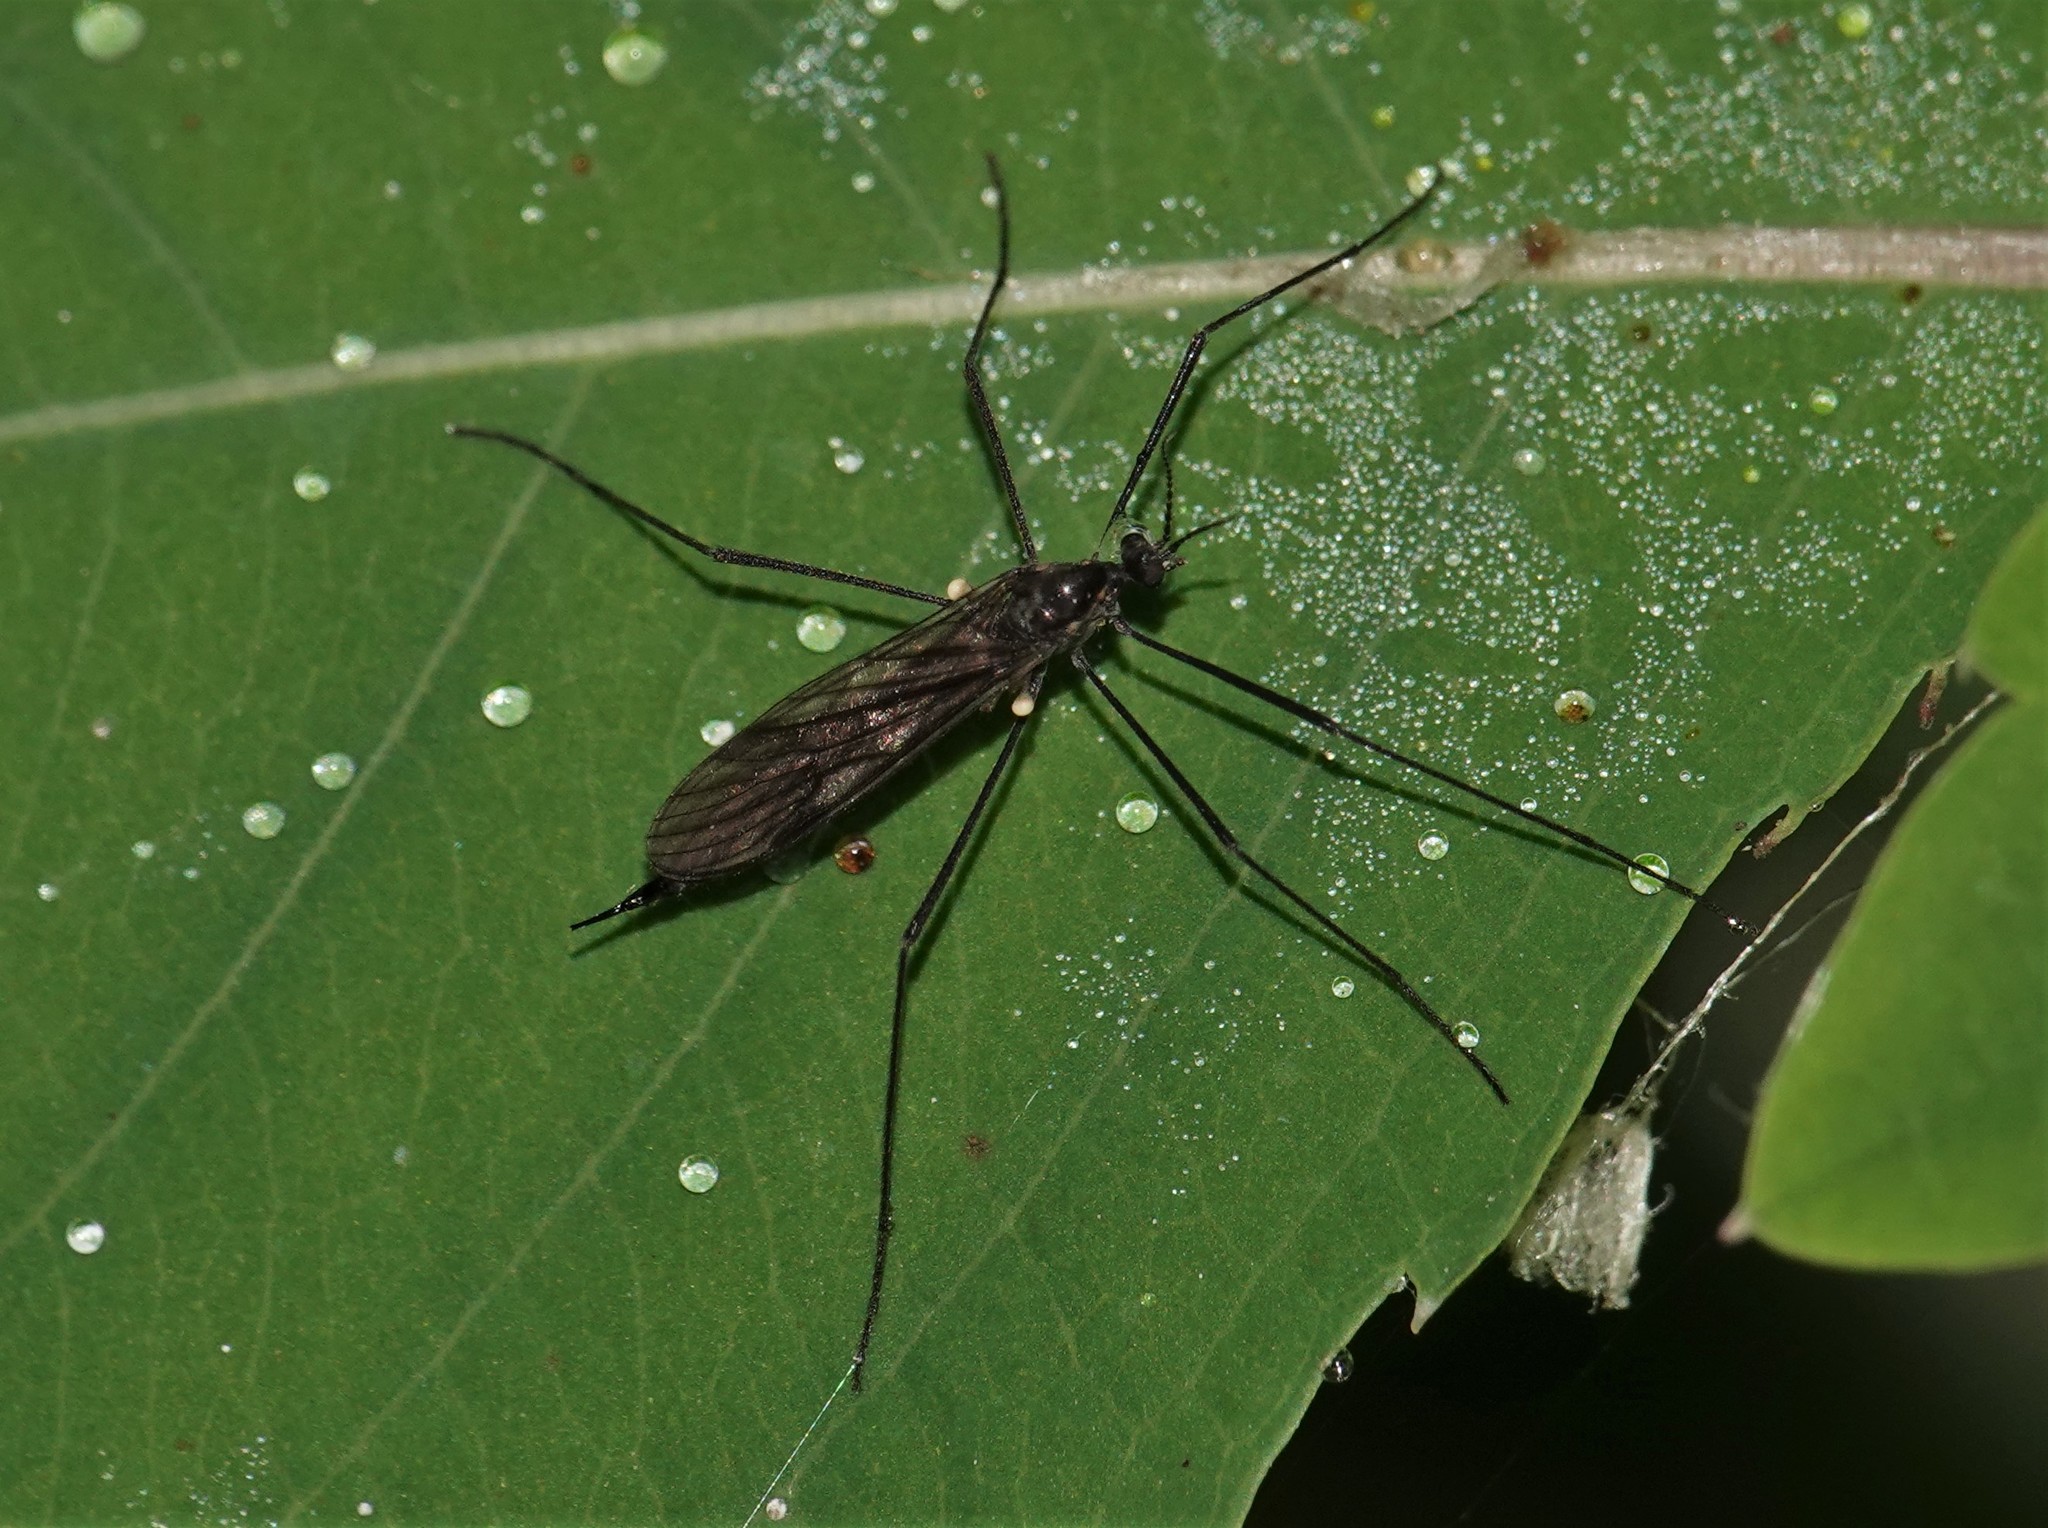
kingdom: Animalia
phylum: Arthropoda
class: Insecta
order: Diptera
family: Limoniidae
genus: Gnophomyia
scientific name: Gnophomyia tristissima
